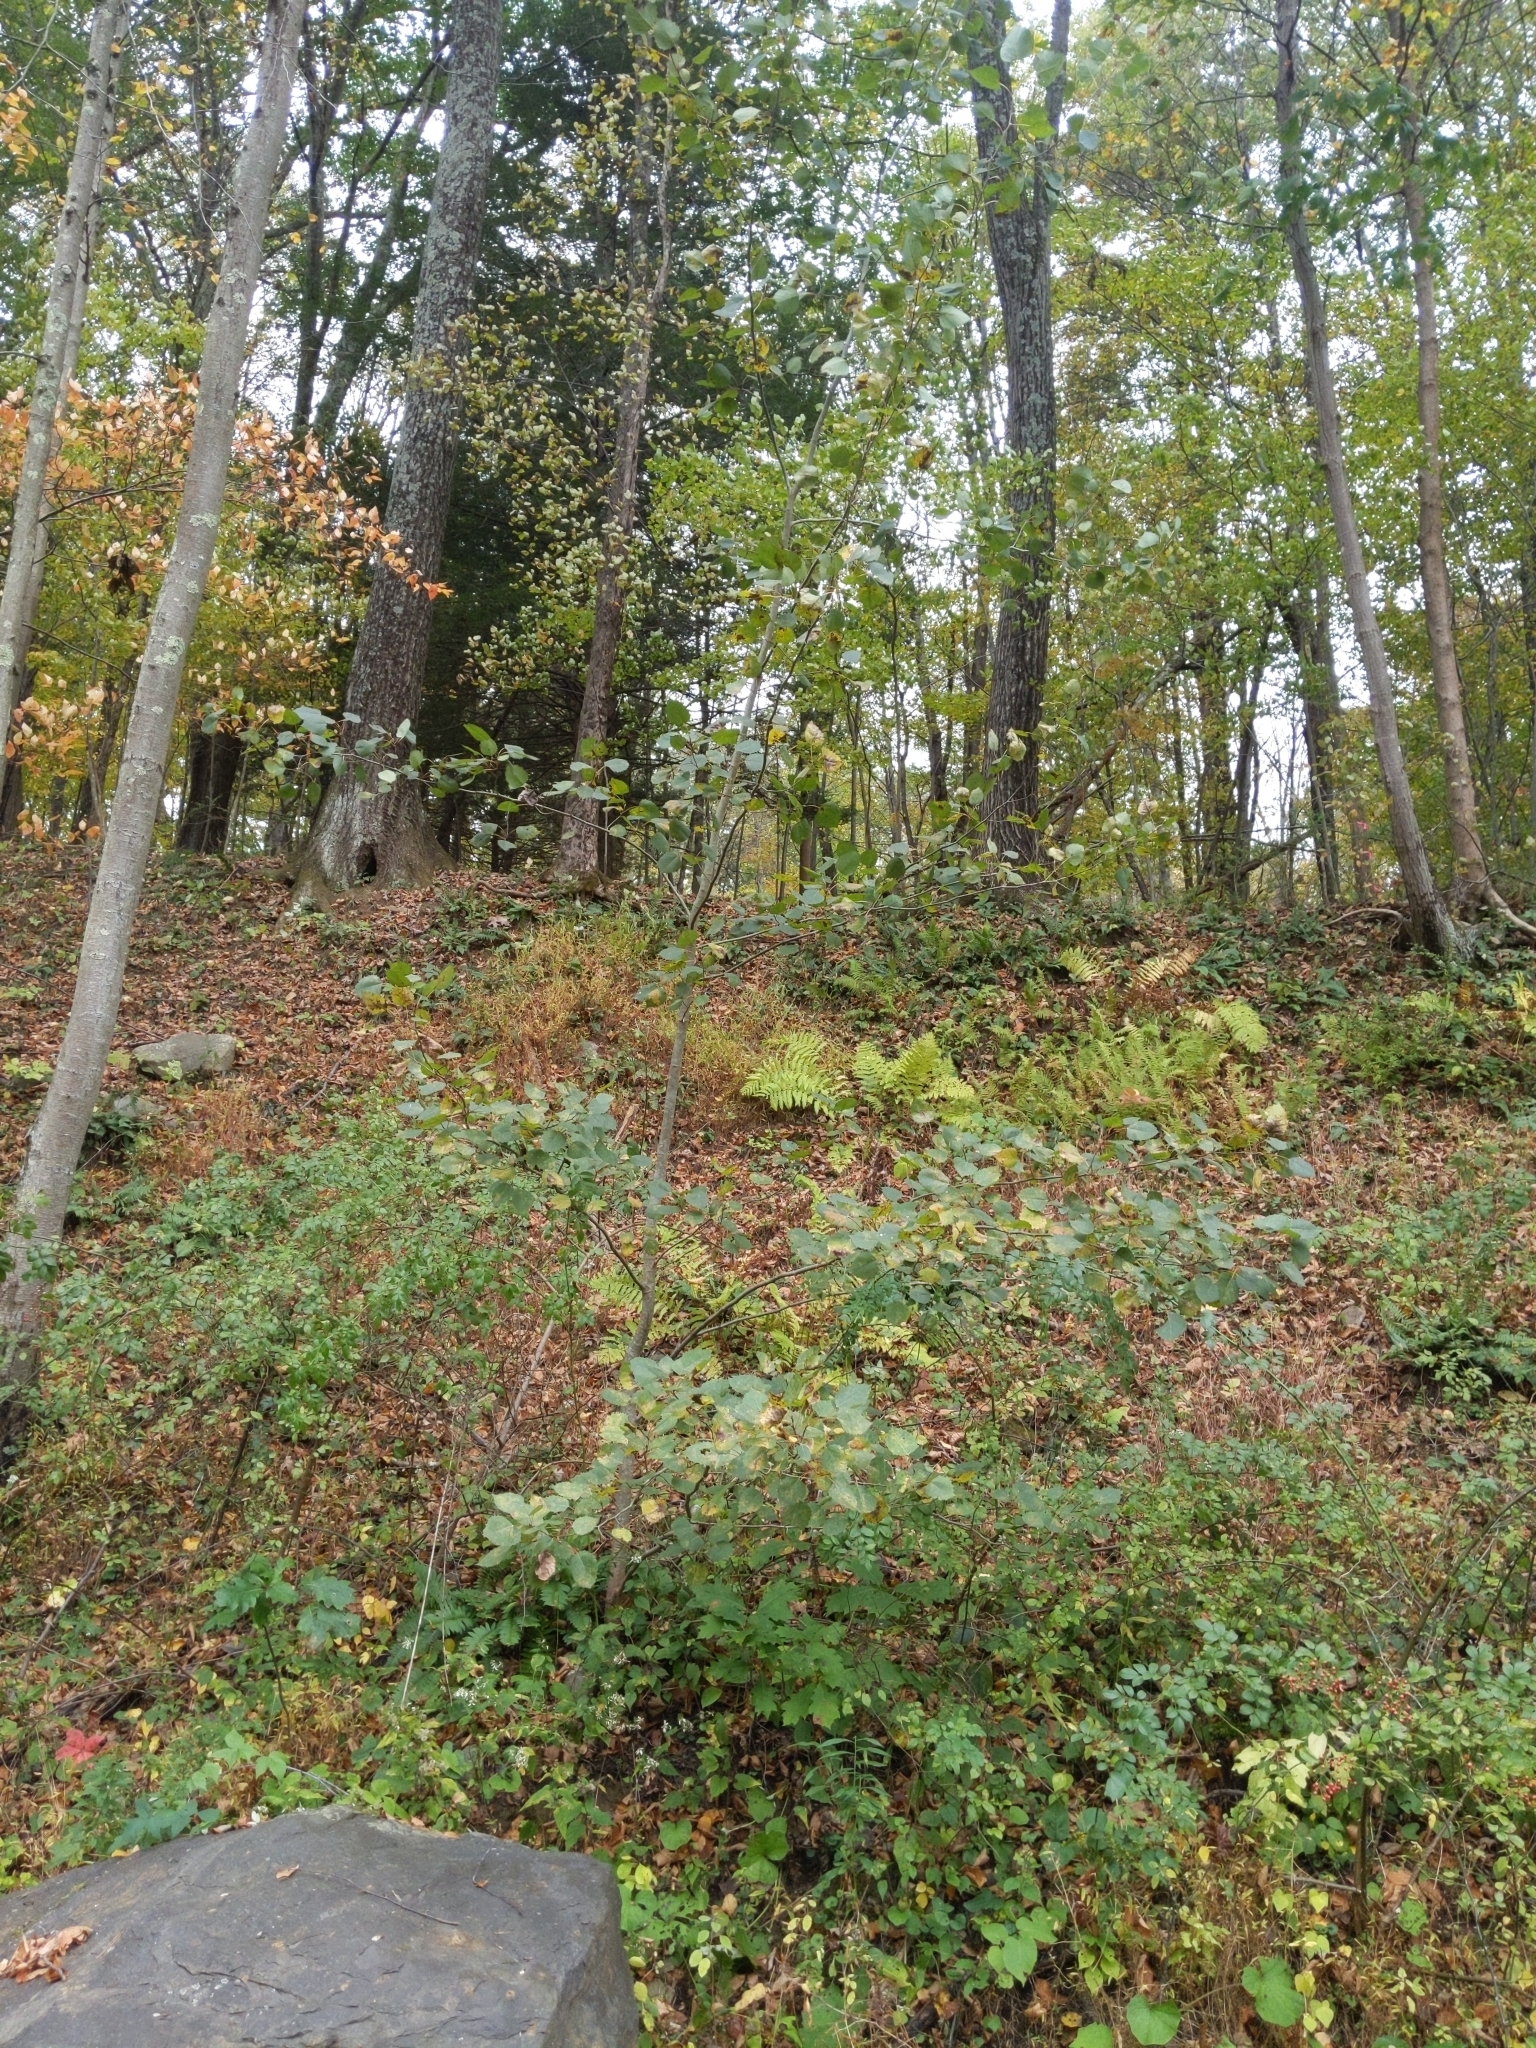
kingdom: Plantae
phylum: Tracheophyta
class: Magnoliopsida
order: Malpighiales
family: Salicaceae
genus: Populus
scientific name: Populus grandidentata
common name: Bigtooth aspen
